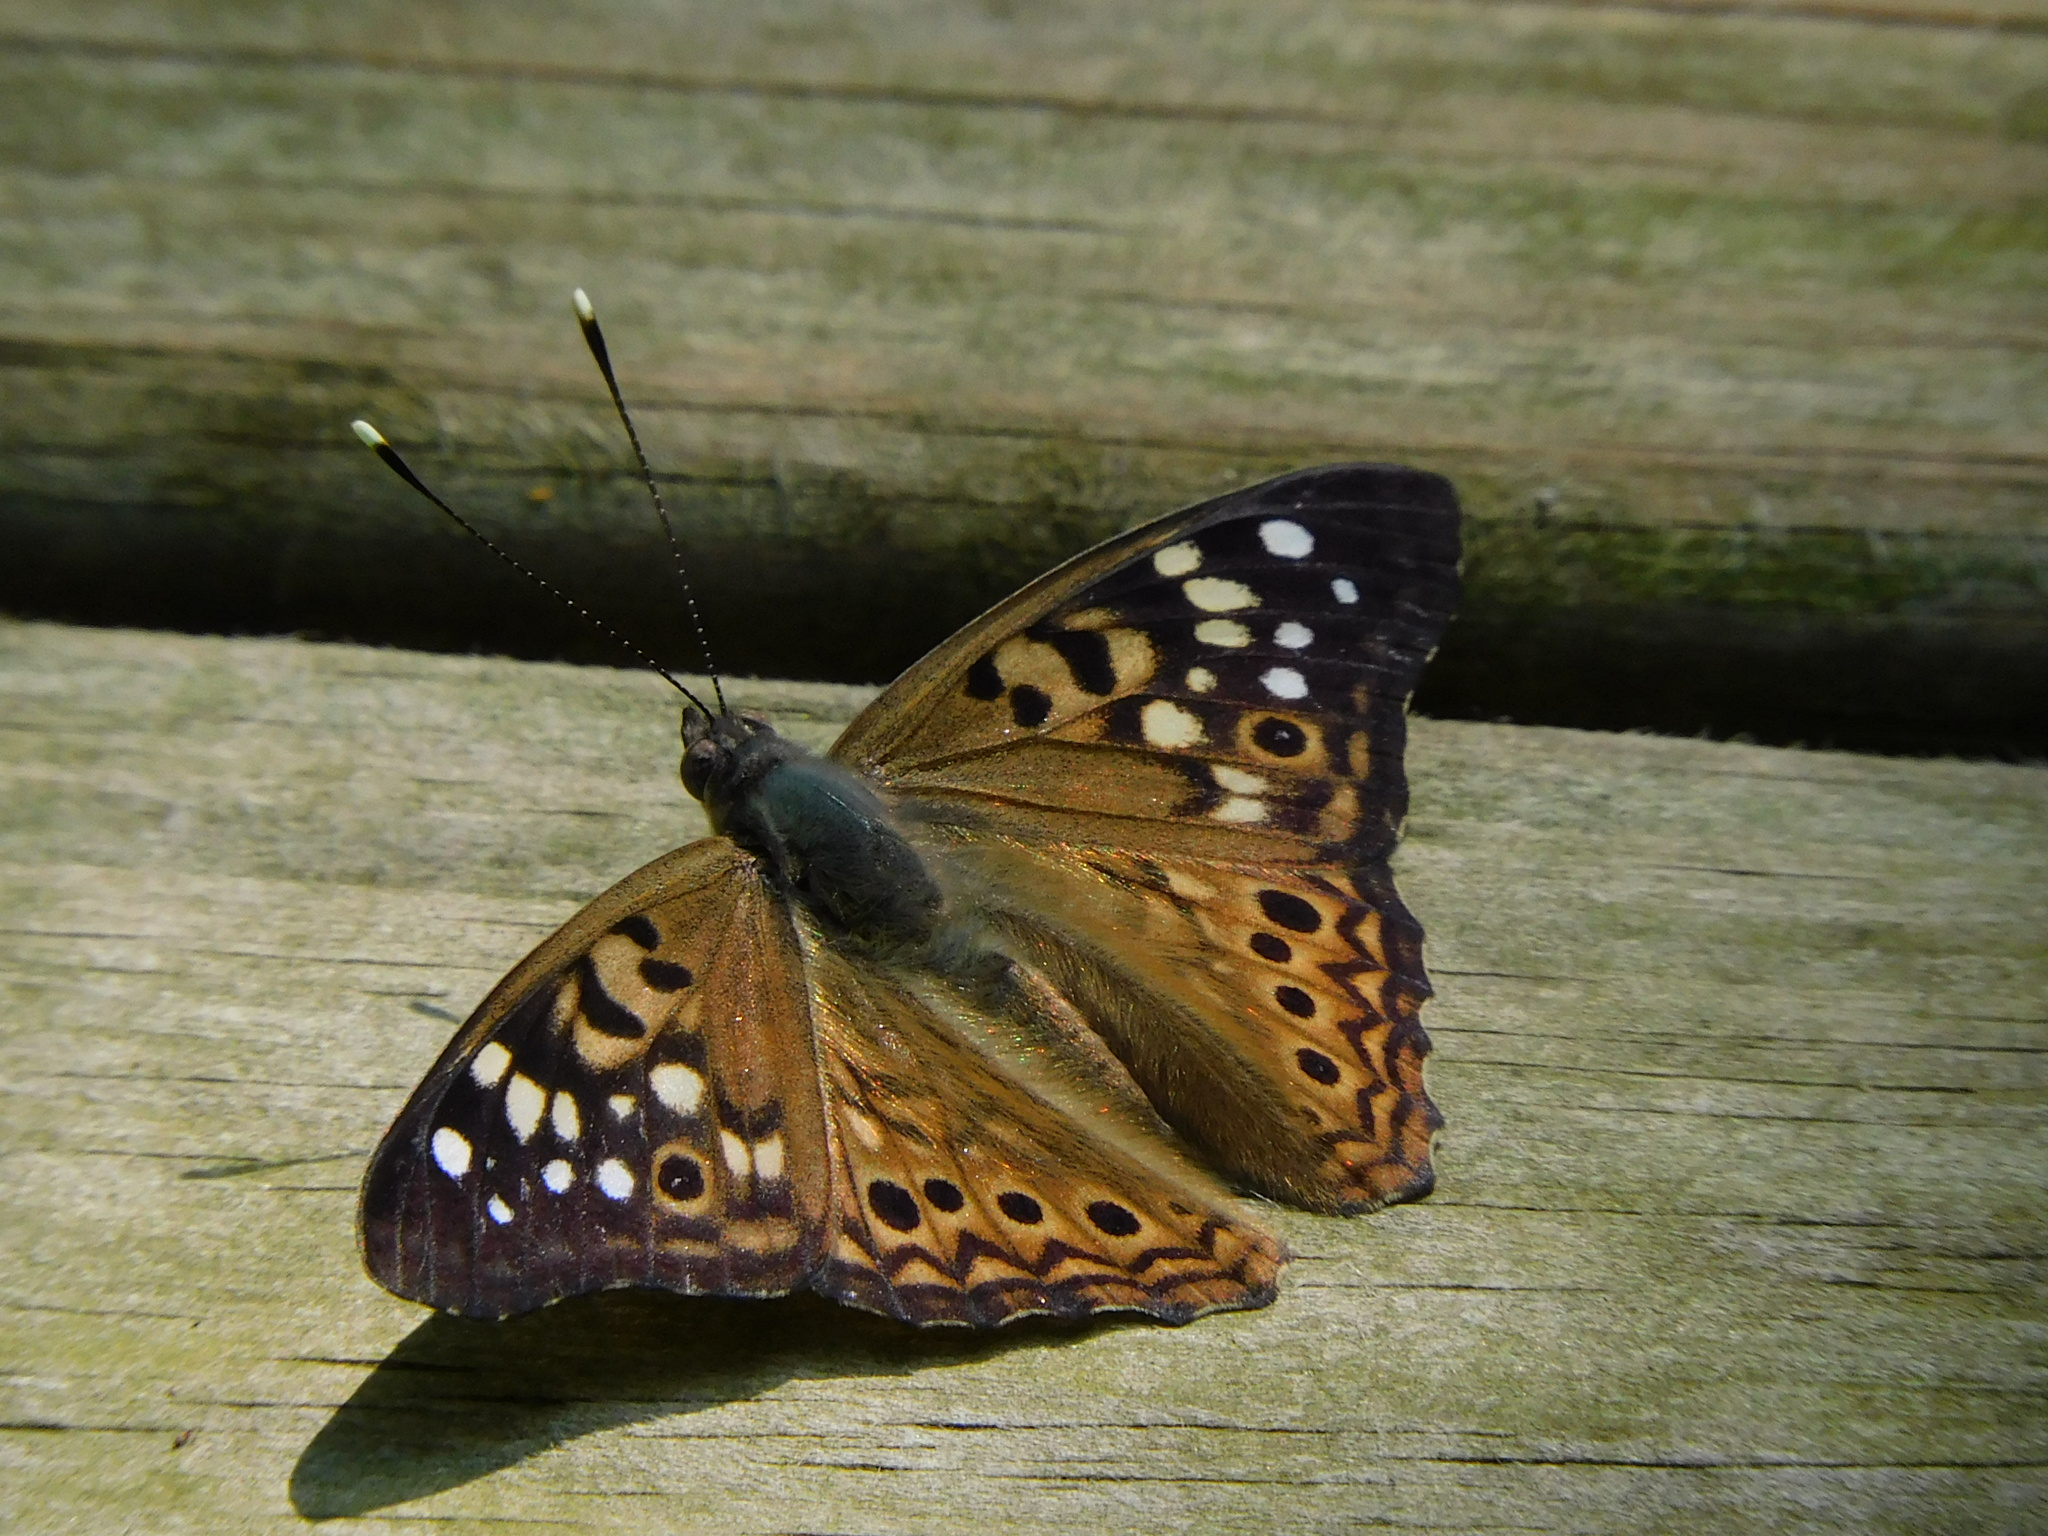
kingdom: Animalia
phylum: Arthropoda
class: Insecta
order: Lepidoptera
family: Nymphalidae
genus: Asterocampa
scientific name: Asterocampa celtis
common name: Hackberry emperor
